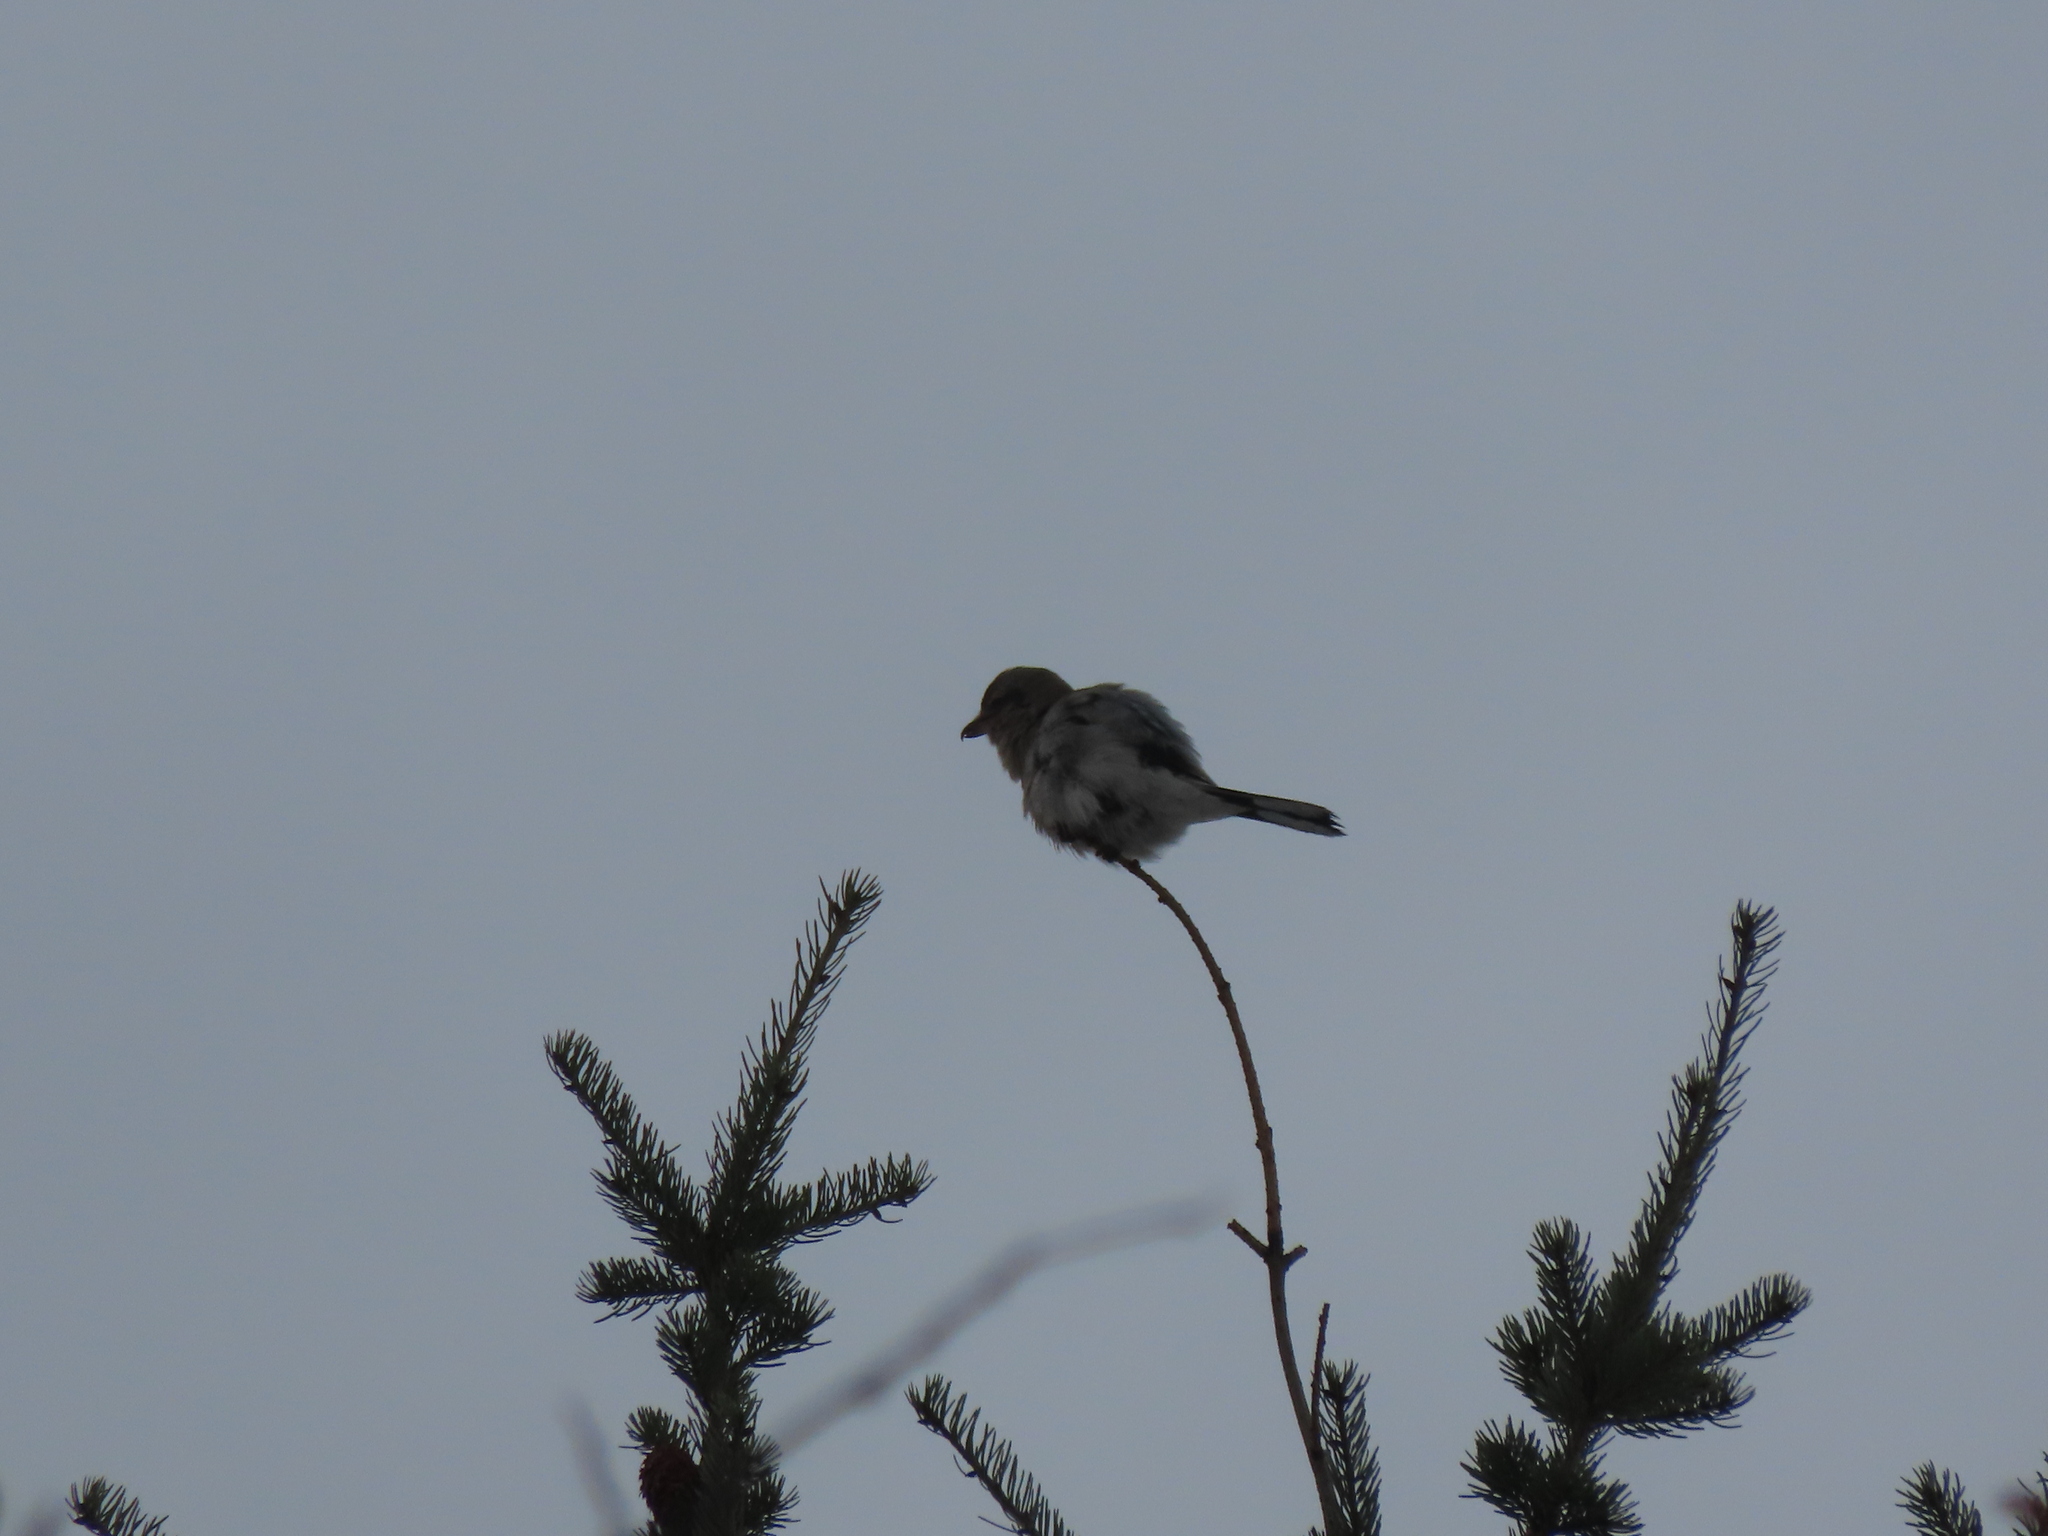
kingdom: Animalia
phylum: Chordata
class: Aves
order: Passeriformes
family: Laniidae
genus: Lanius
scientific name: Lanius borealis
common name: Northern shrike
